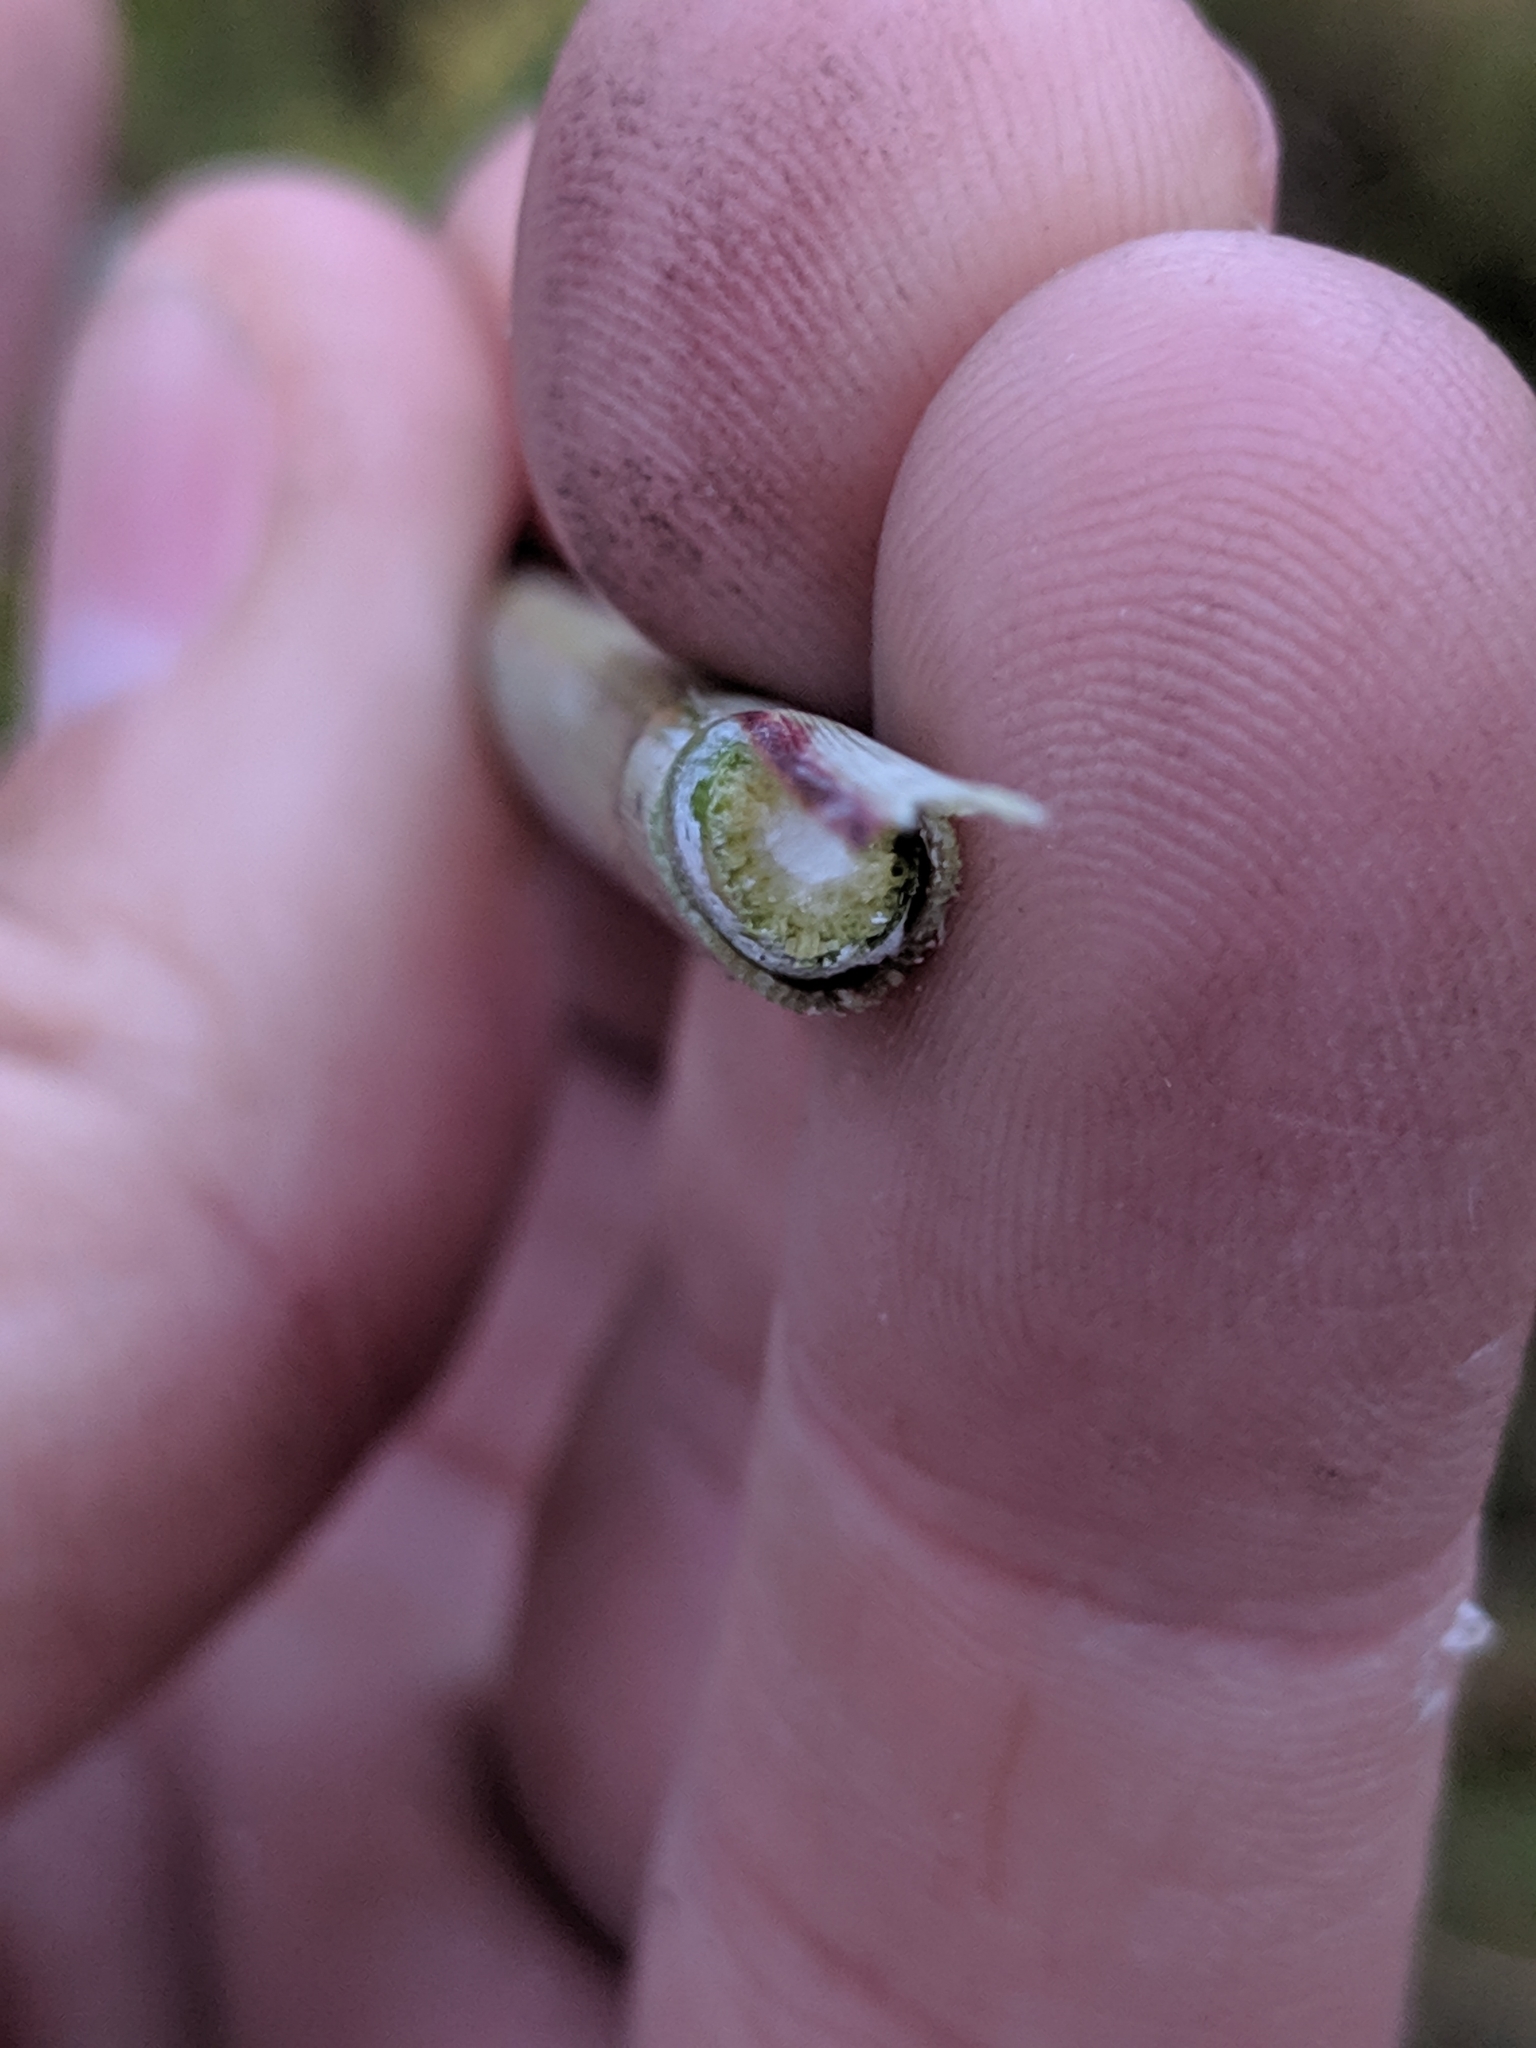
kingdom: Plantae
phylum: Tracheophyta
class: Liliopsida
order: Poales
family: Poaceae
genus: Miscanthus
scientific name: Miscanthus sinensis
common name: Chinese silvergrass
